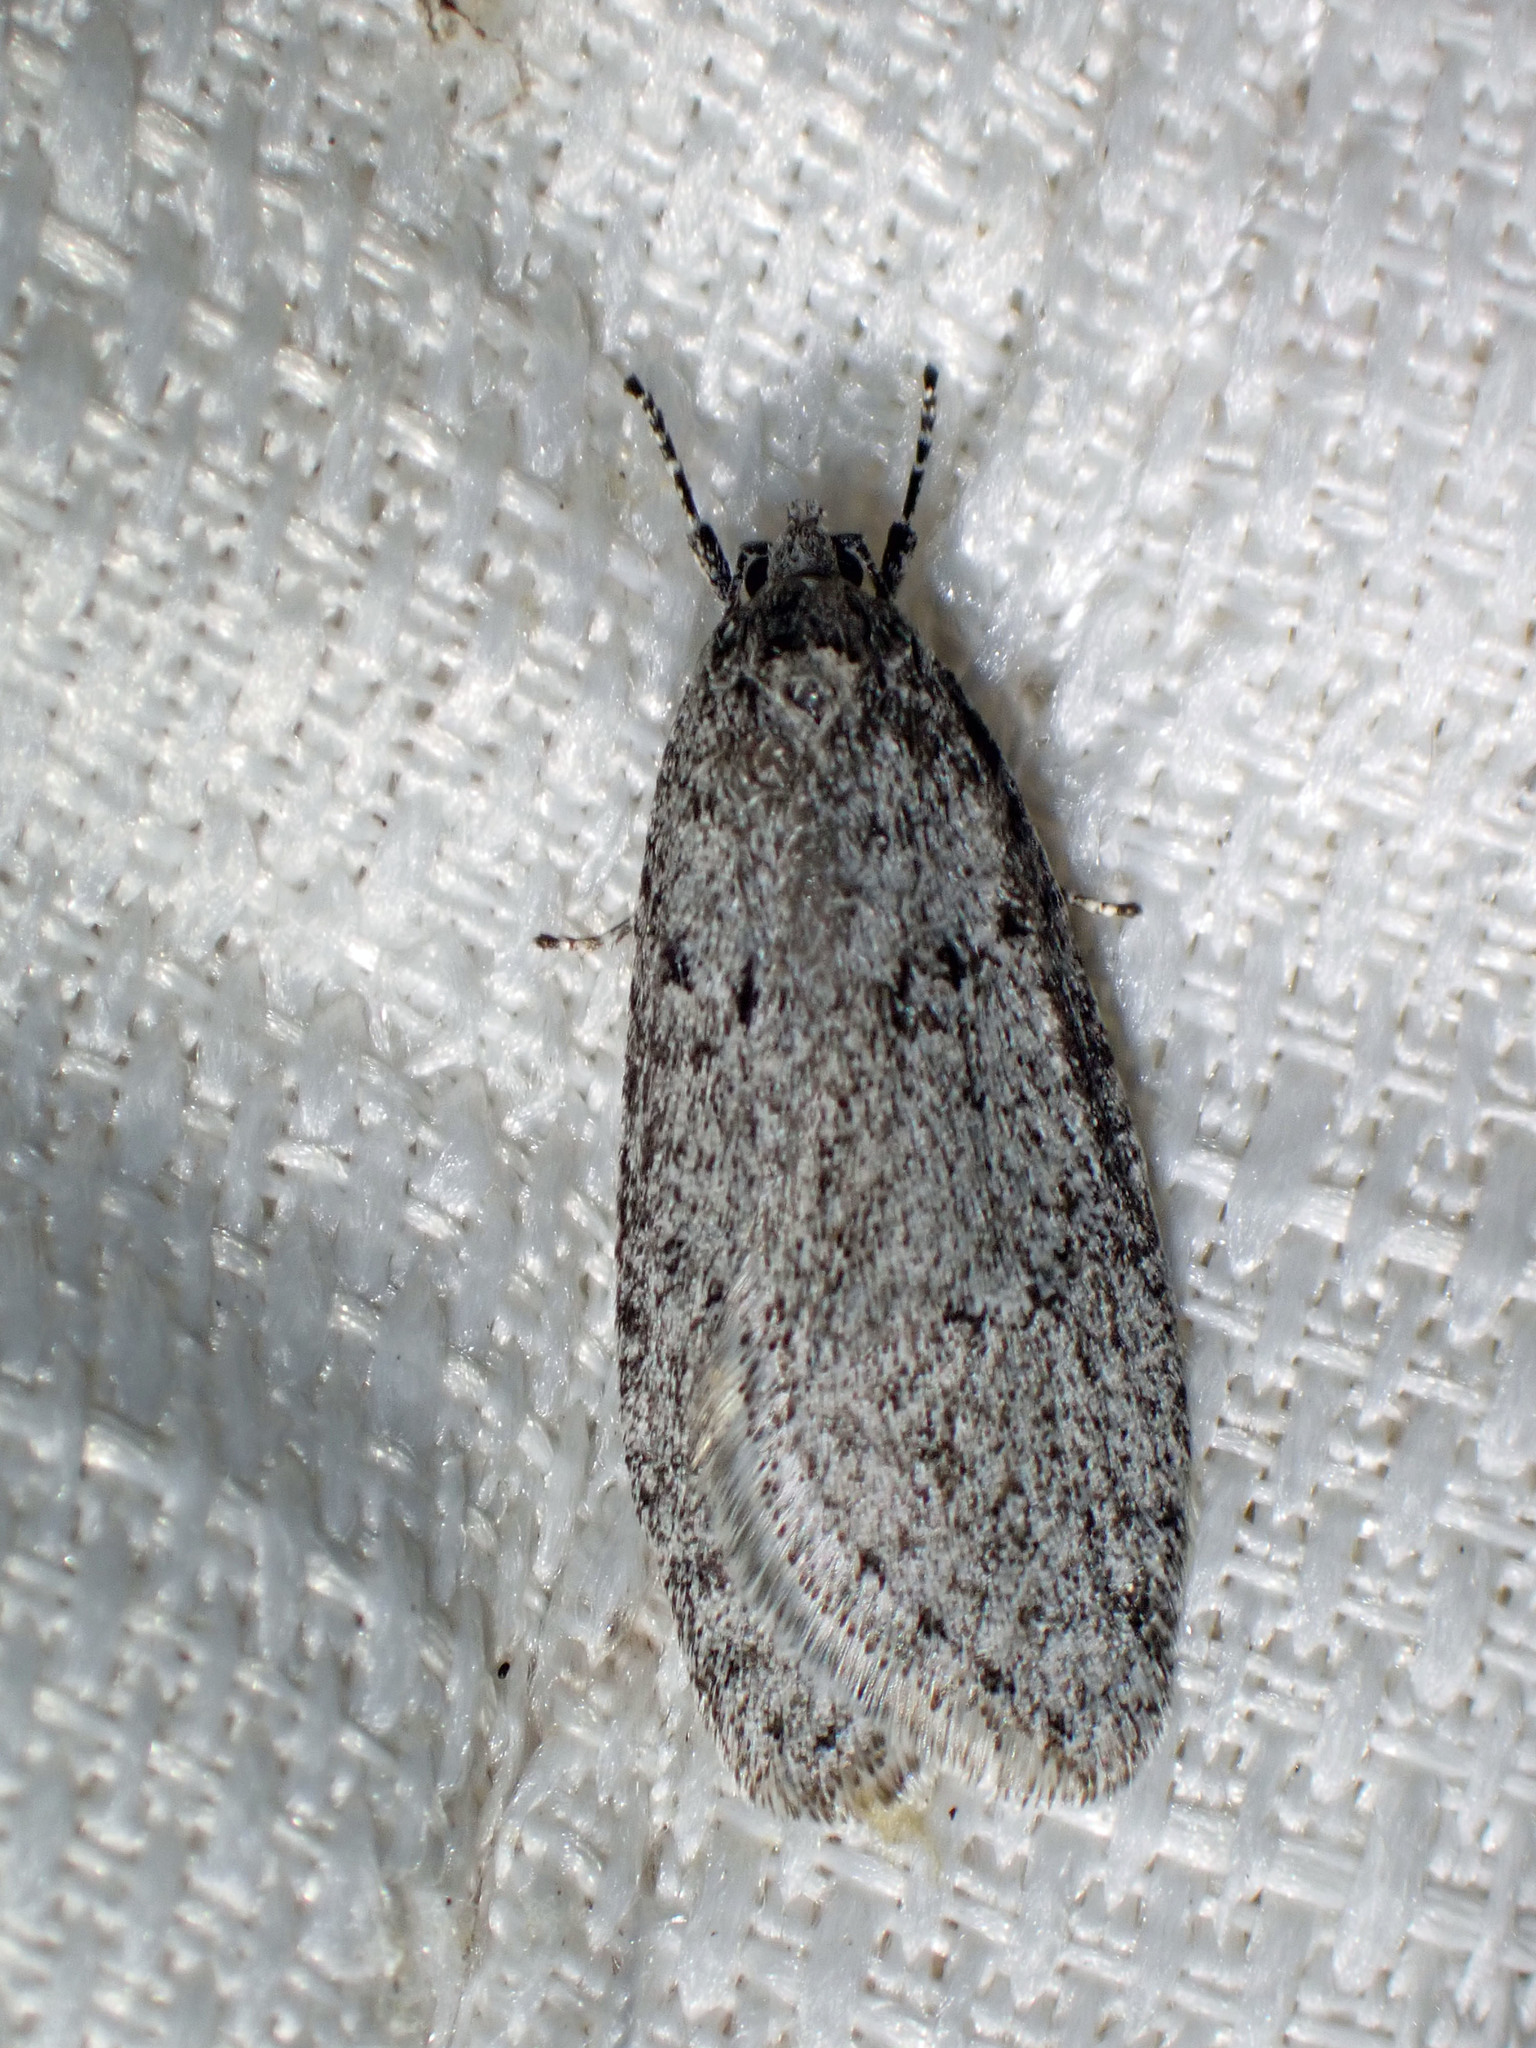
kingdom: Animalia
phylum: Arthropoda
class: Insecta
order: Lepidoptera
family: Depressariidae
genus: Semioscopis
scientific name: Semioscopis inornata
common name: Poplar micromoth
